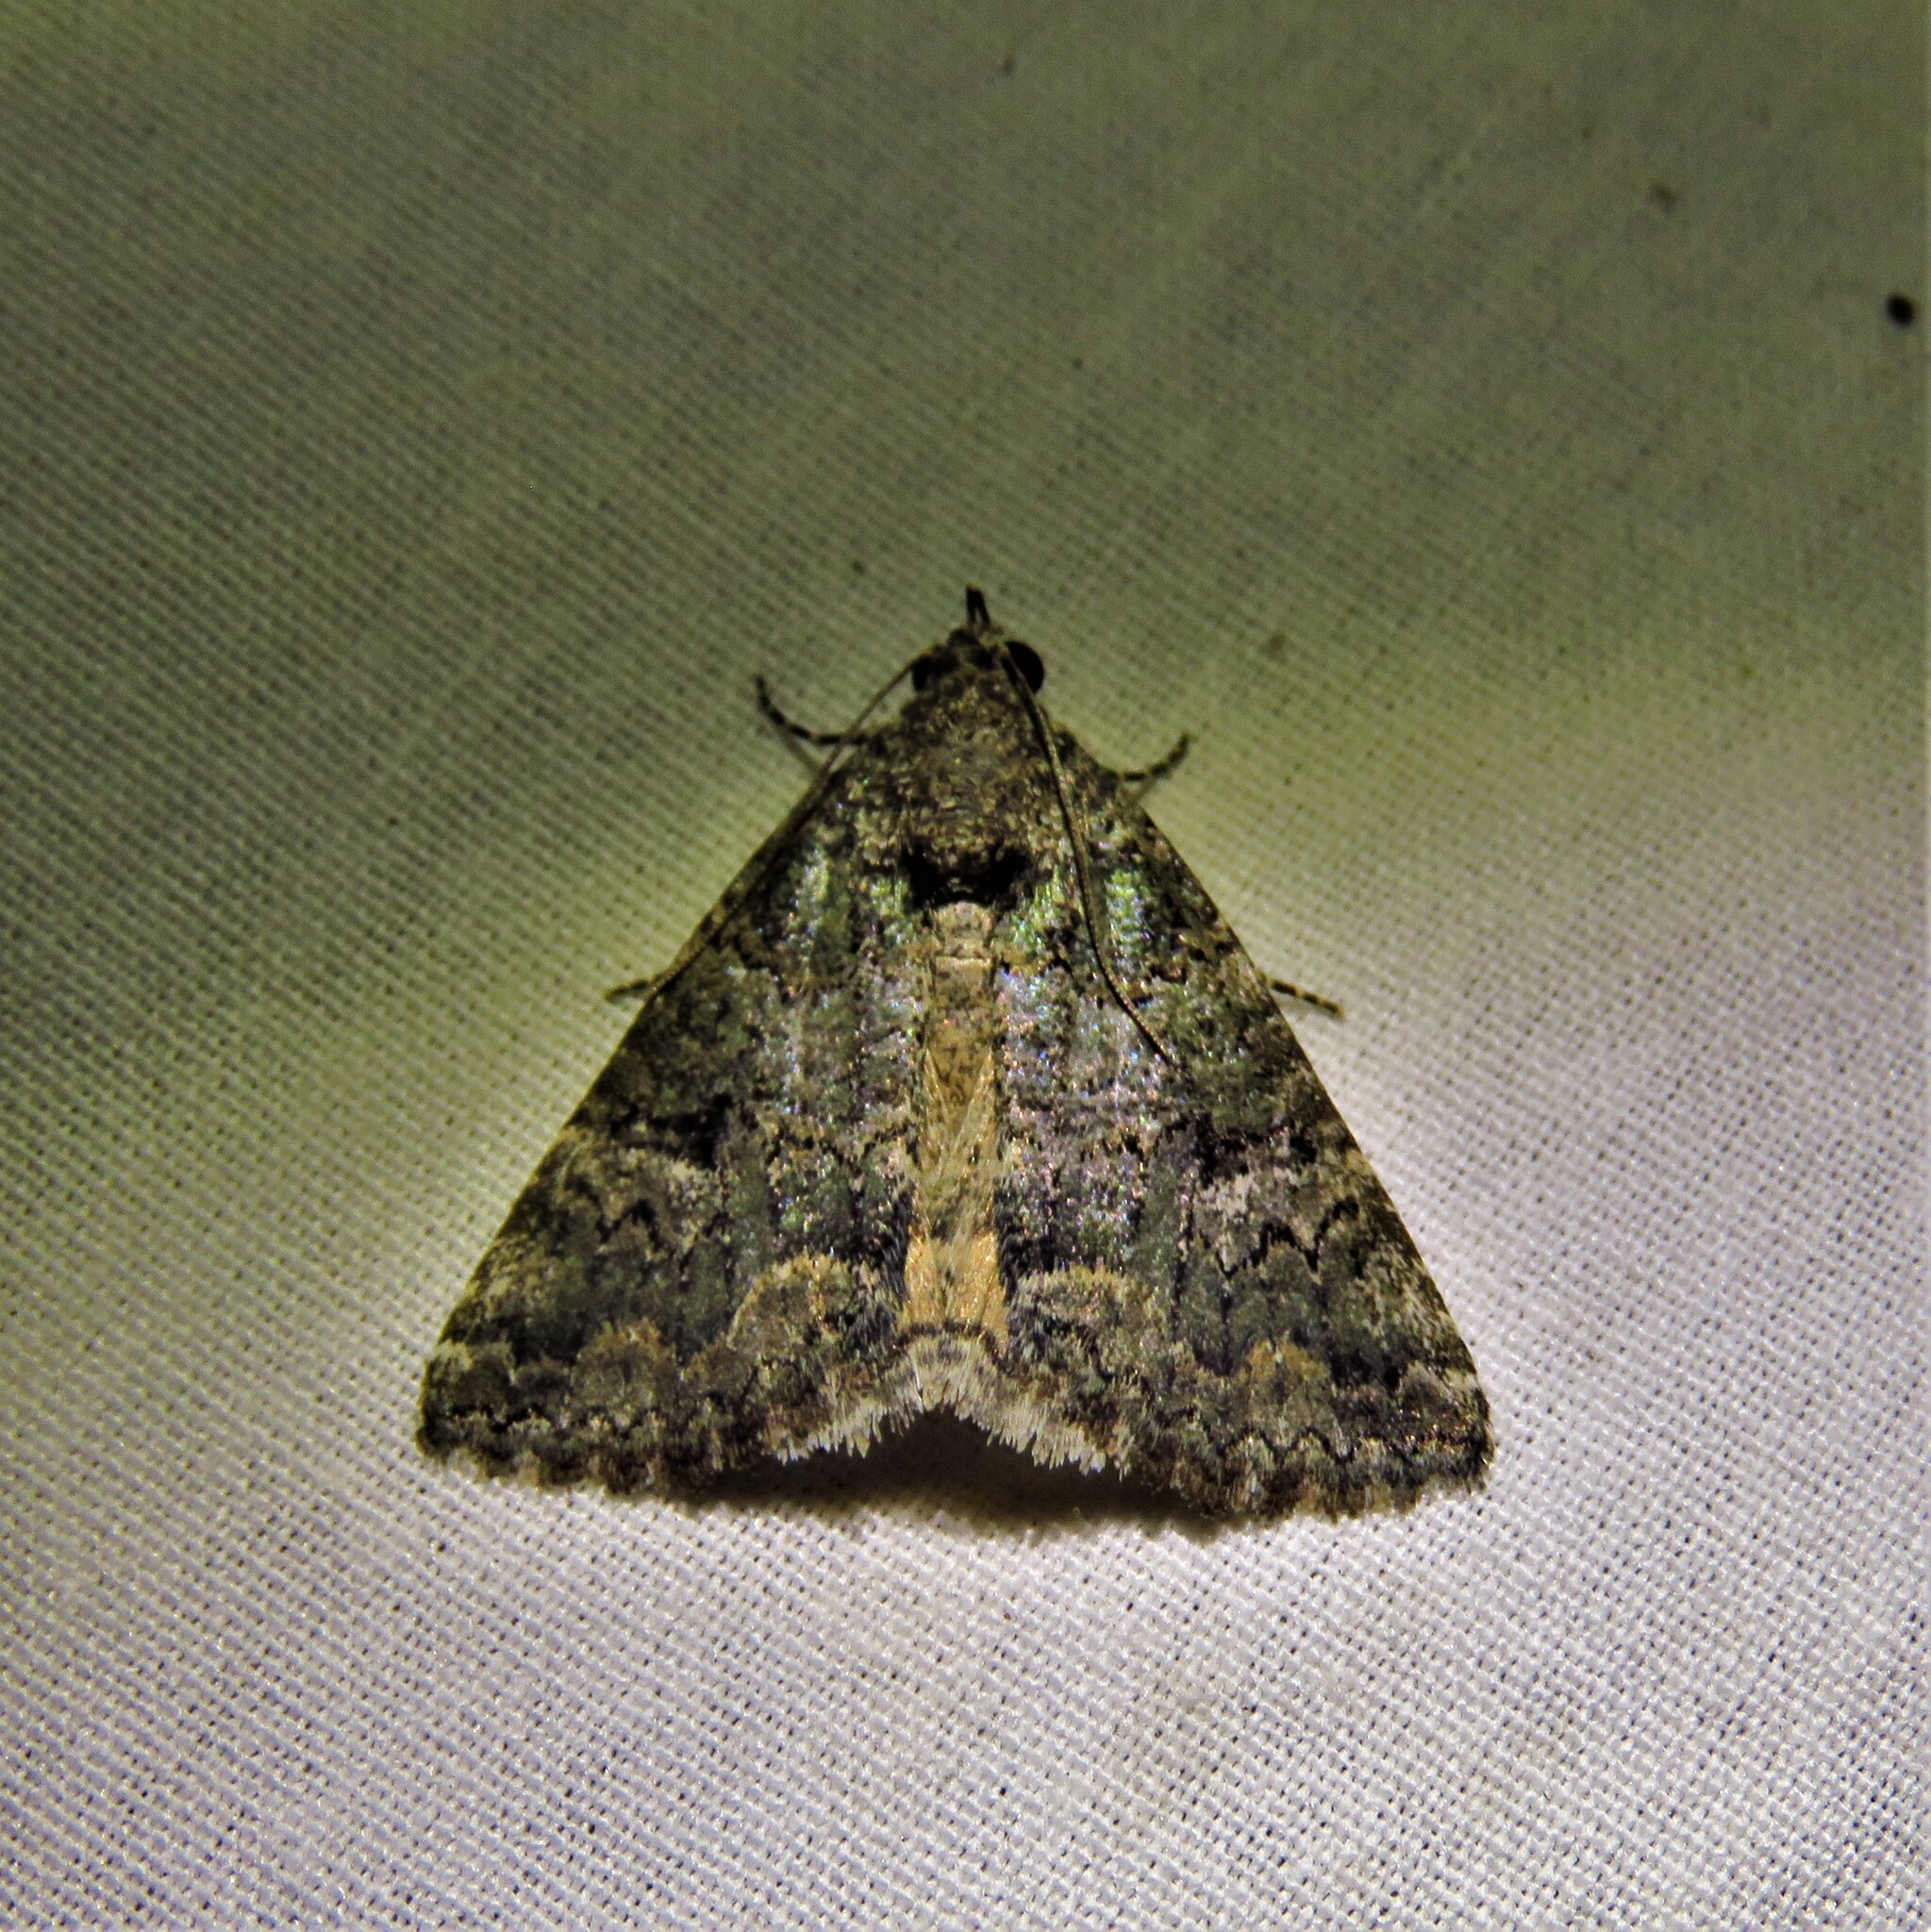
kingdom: Animalia
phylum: Arthropoda
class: Insecta
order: Lepidoptera
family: Erebidae
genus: Eubolina
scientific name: Eubolina impartialis
